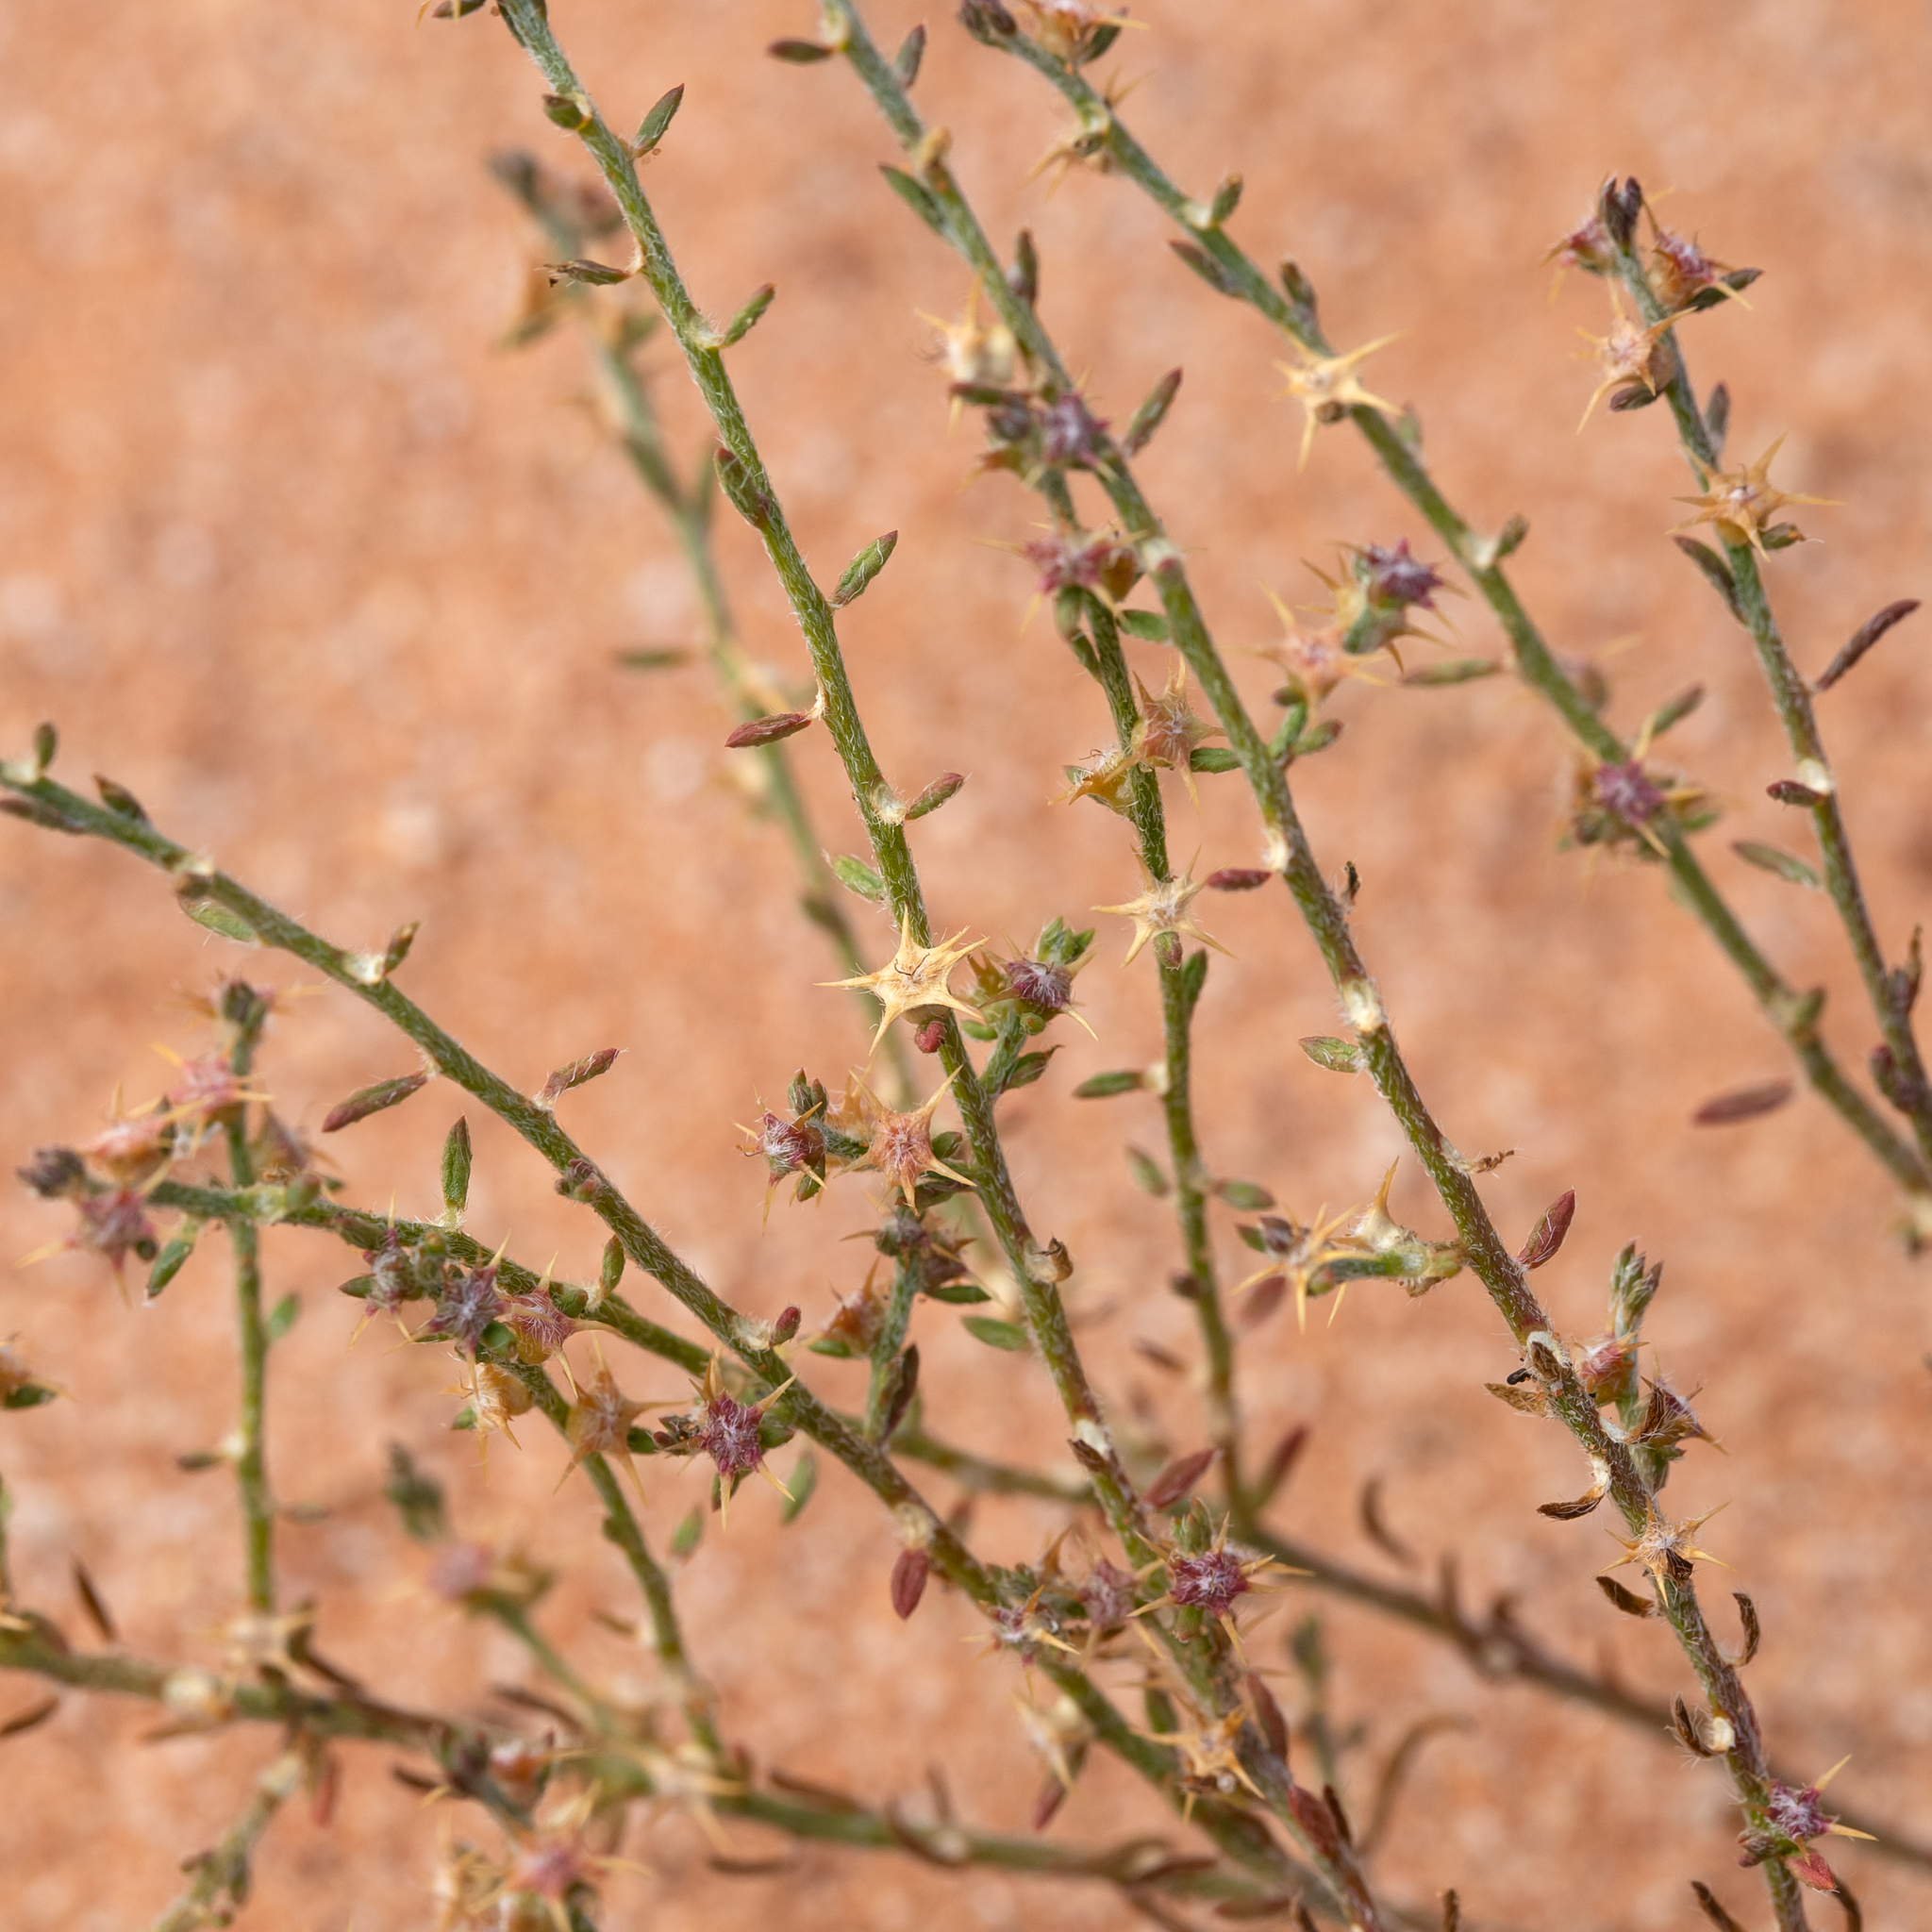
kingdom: Plantae
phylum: Tracheophyta
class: Magnoliopsida
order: Caryophyllales
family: Amaranthaceae
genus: Sclerolaena
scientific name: Sclerolaena parviflora
